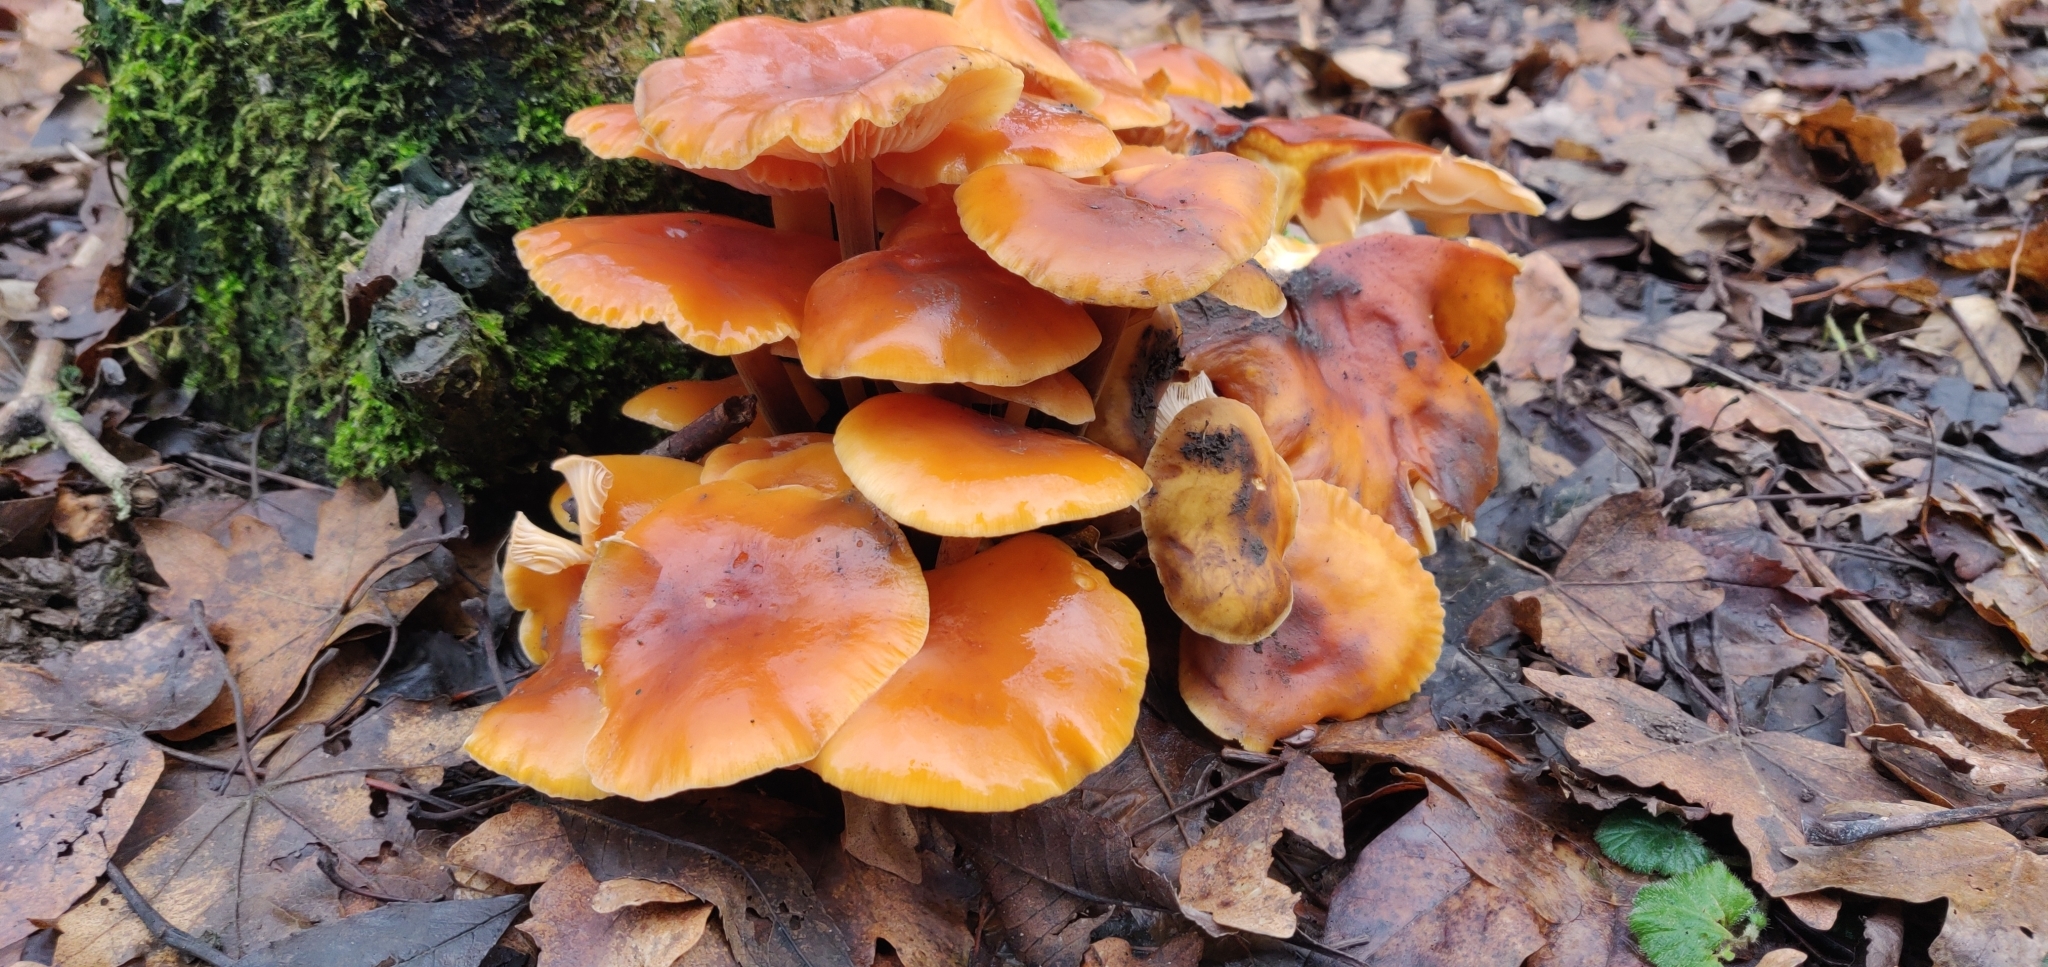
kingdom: Fungi
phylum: Basidiomycota
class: Agaricomycetes
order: Agaricales
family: Physalacriaceae
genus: Flammulina
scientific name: Flammulina
